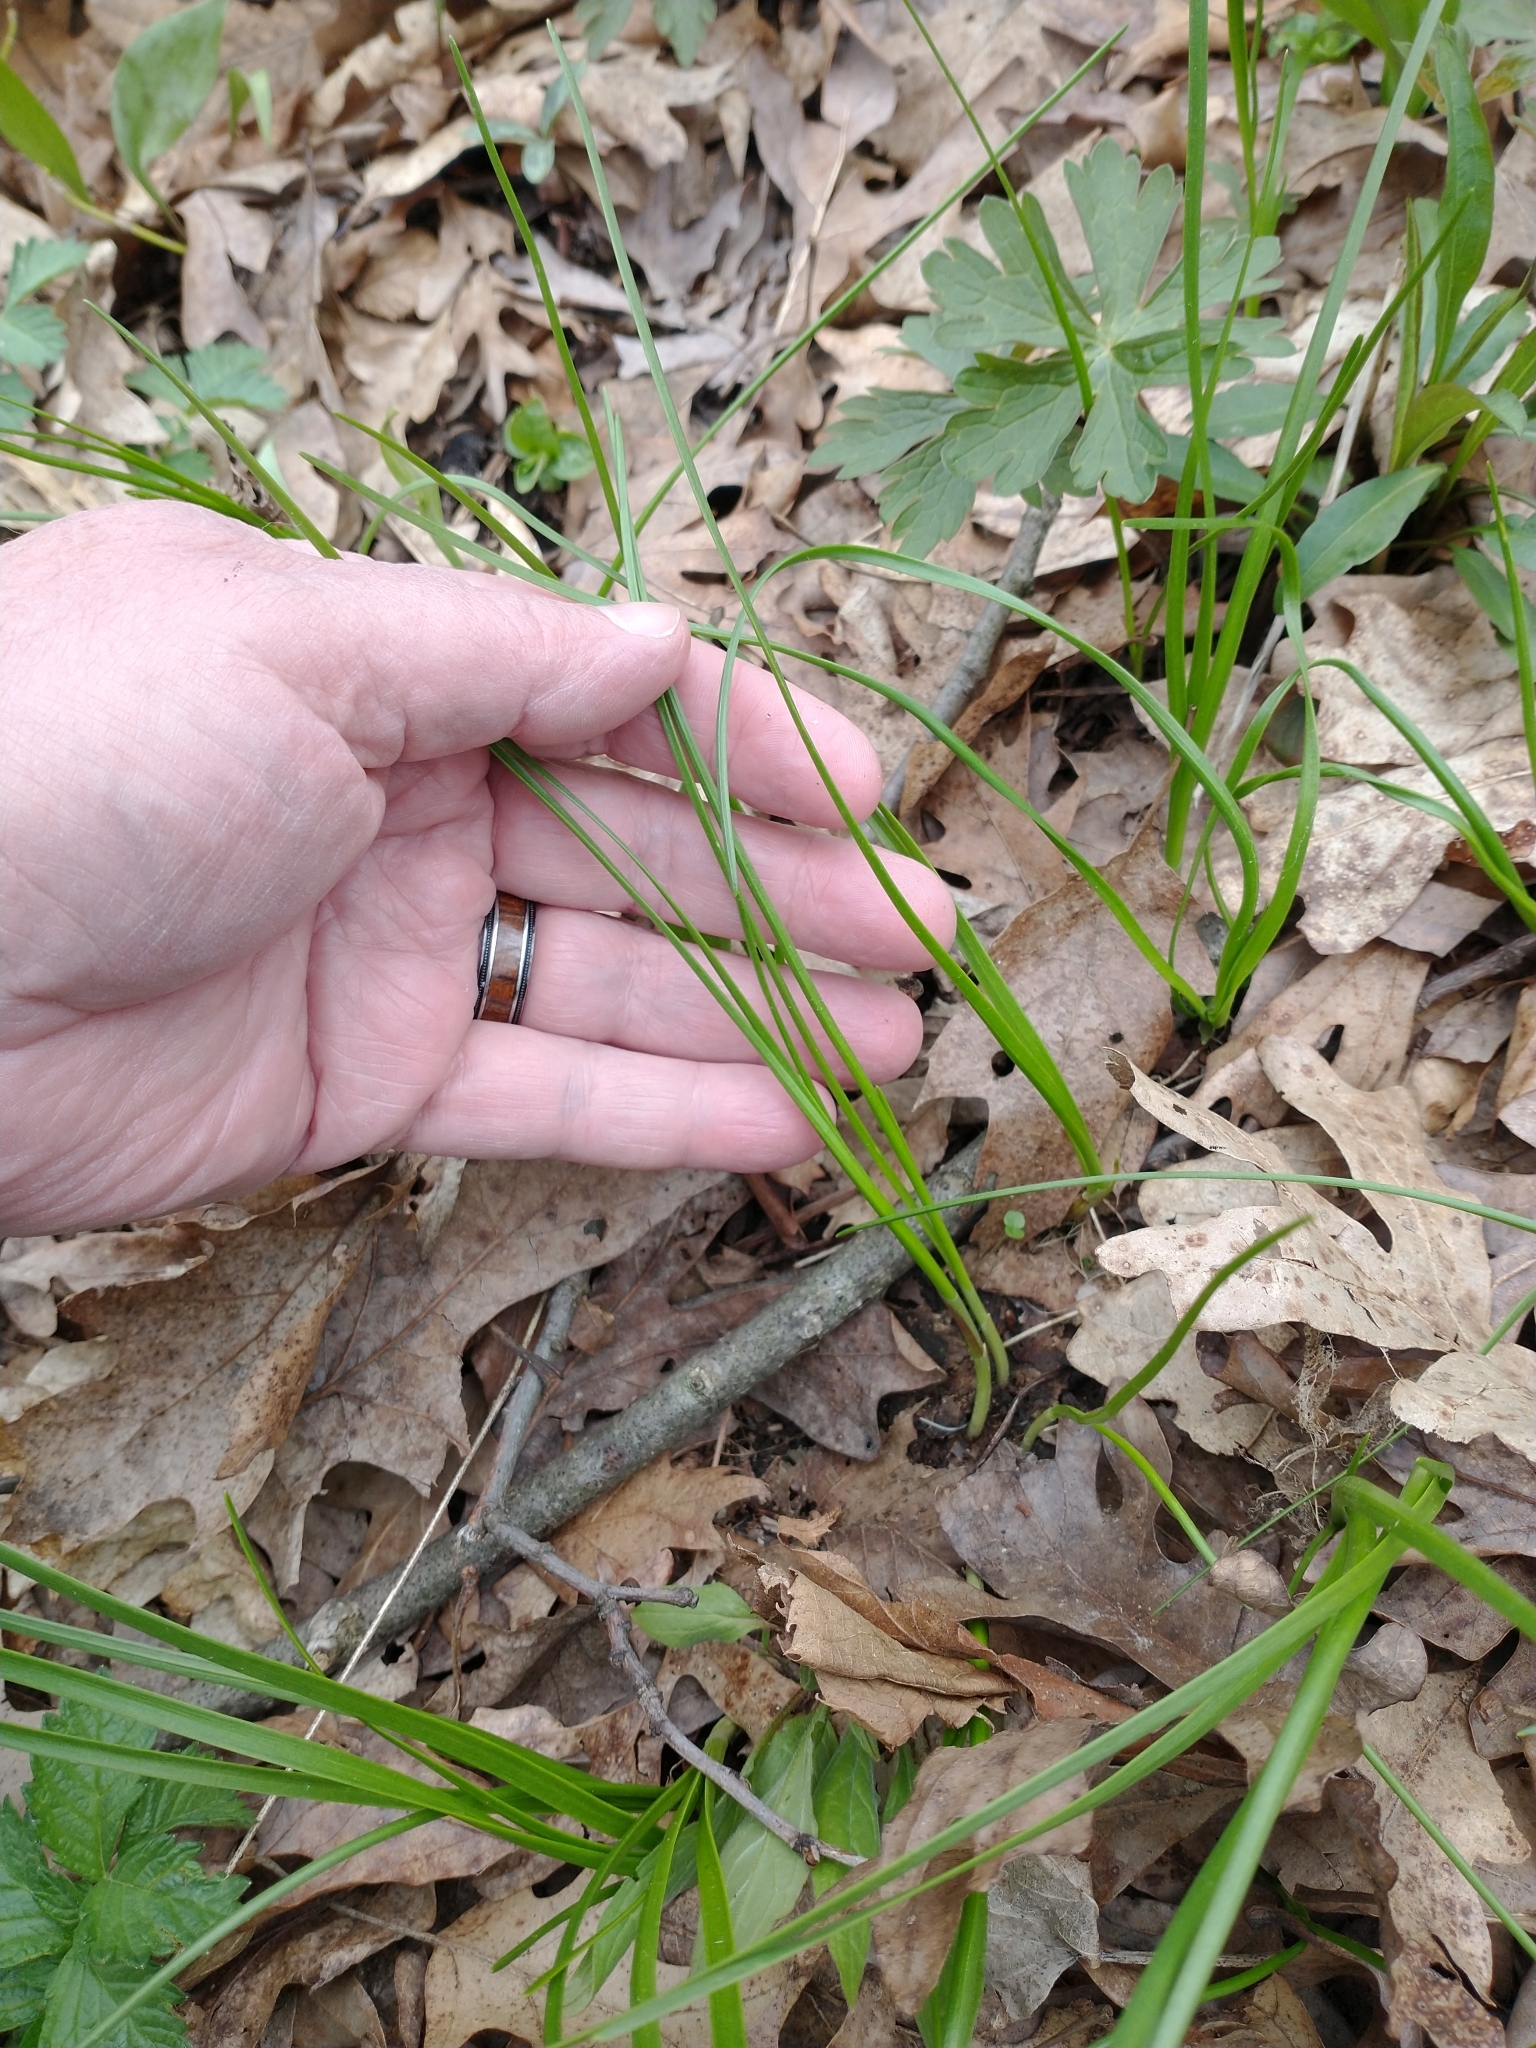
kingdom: Plantae
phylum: Tracheophyta
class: Liliopsida
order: Asparagales
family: Amaryllidaceae
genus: Allium
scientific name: Allium canadense
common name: Meadow garlic
